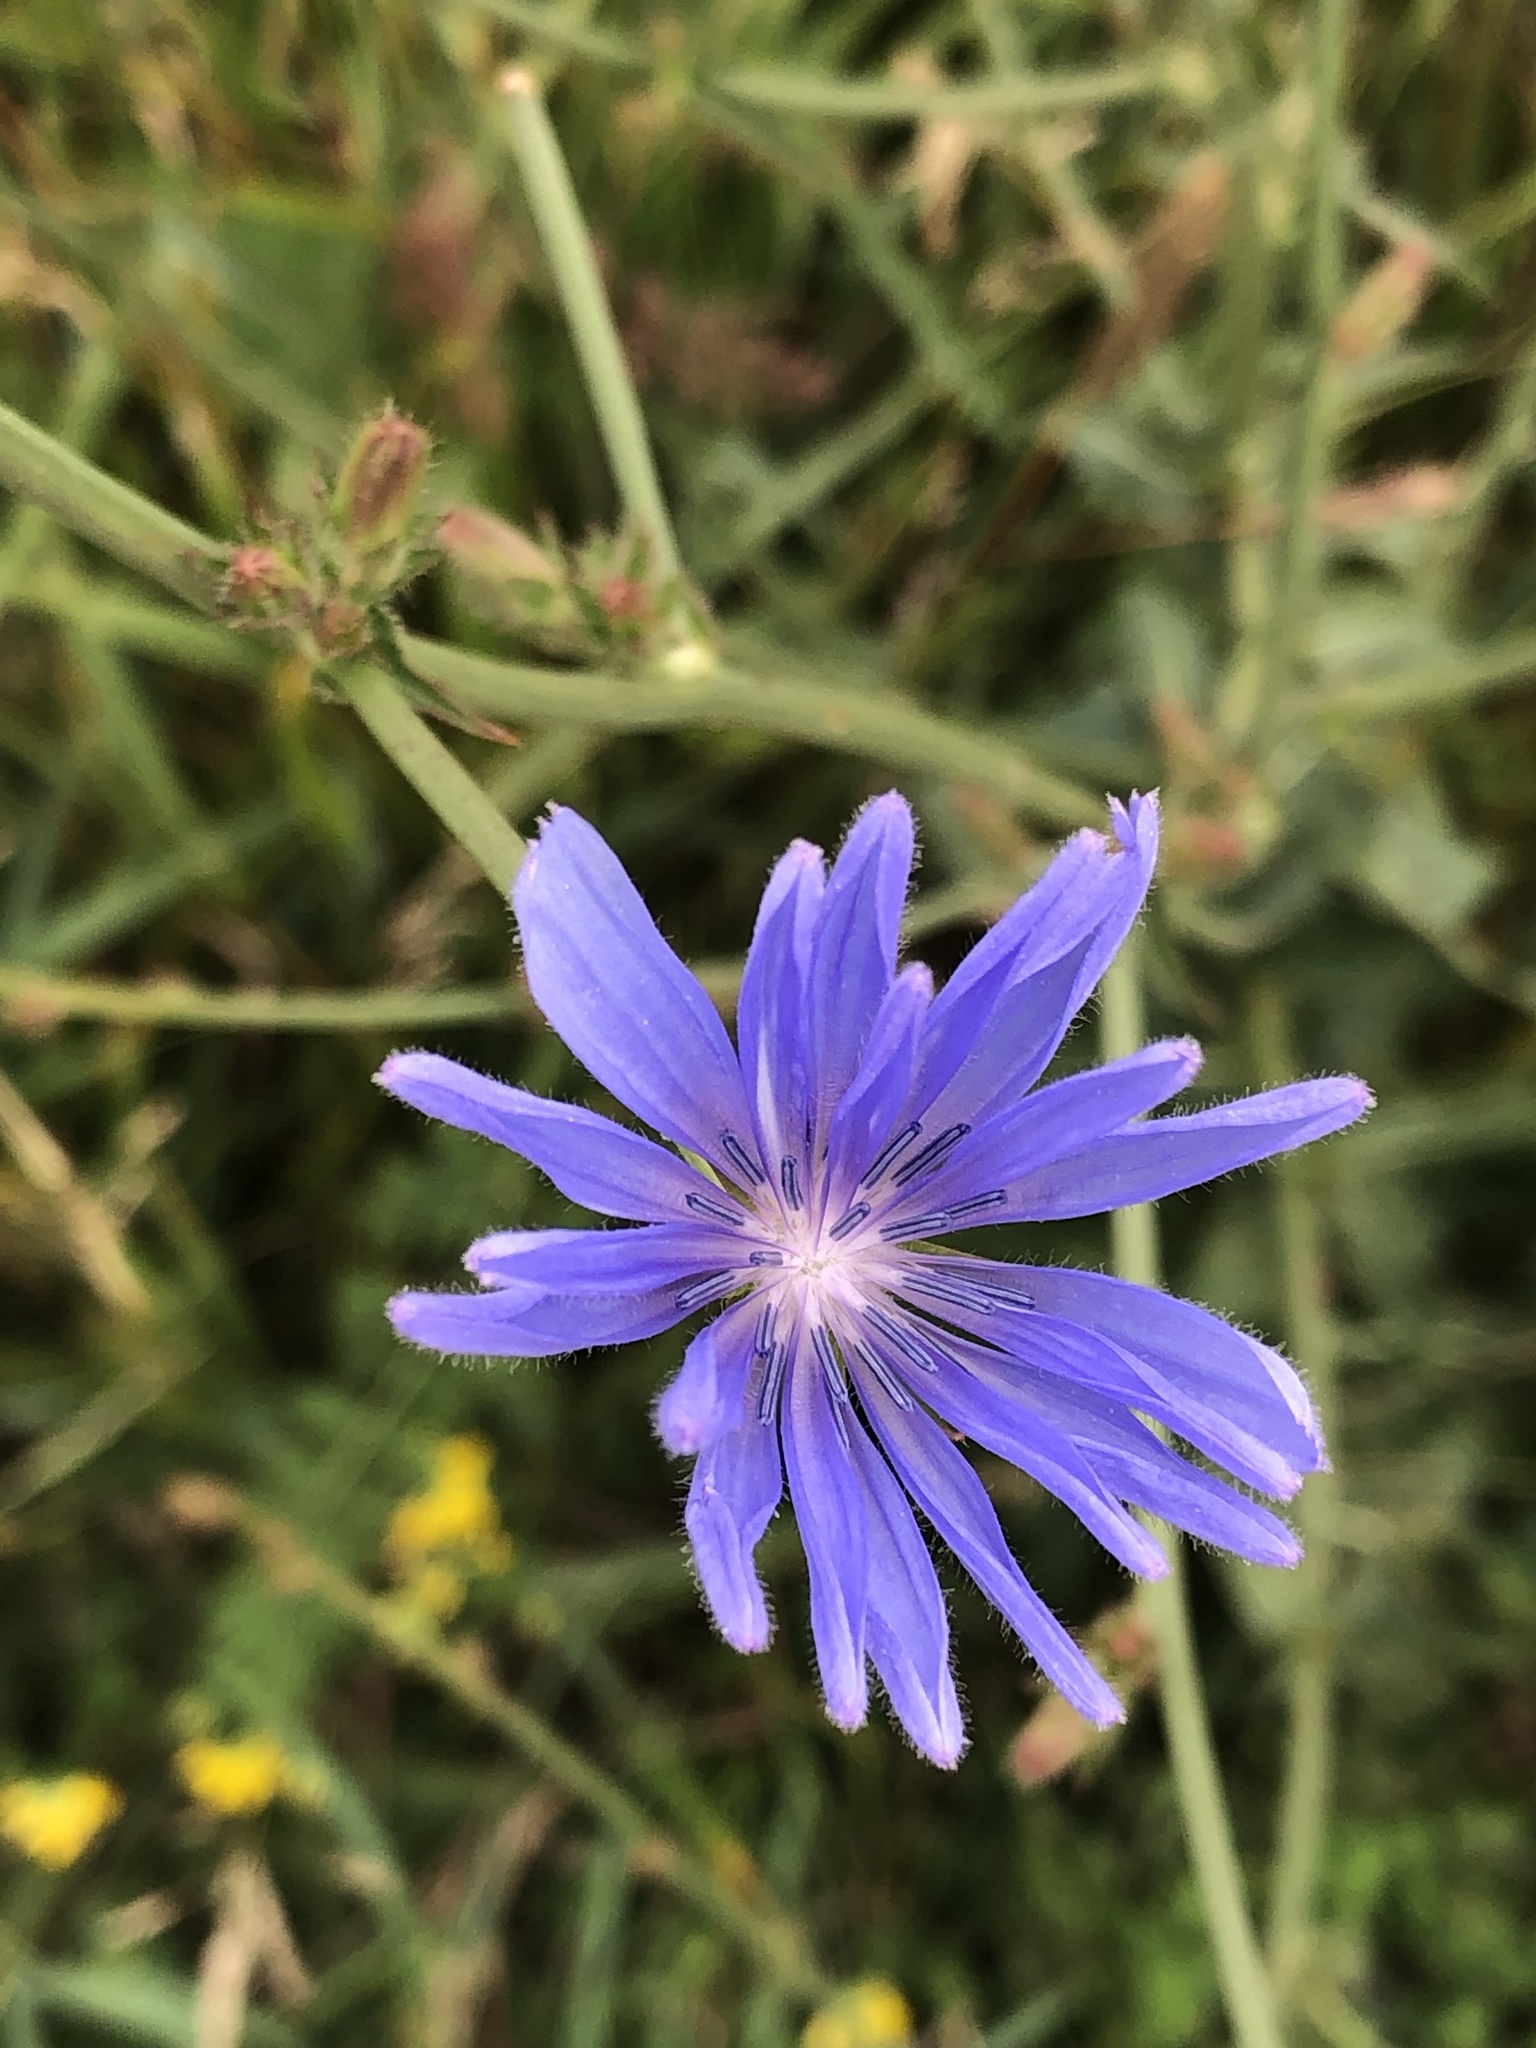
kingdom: Plantae
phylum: Tracheophyta
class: Magnoliopsida
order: Asterales
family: Asteraceae
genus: Cichorium
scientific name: Cichorium intybus
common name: Chicory
